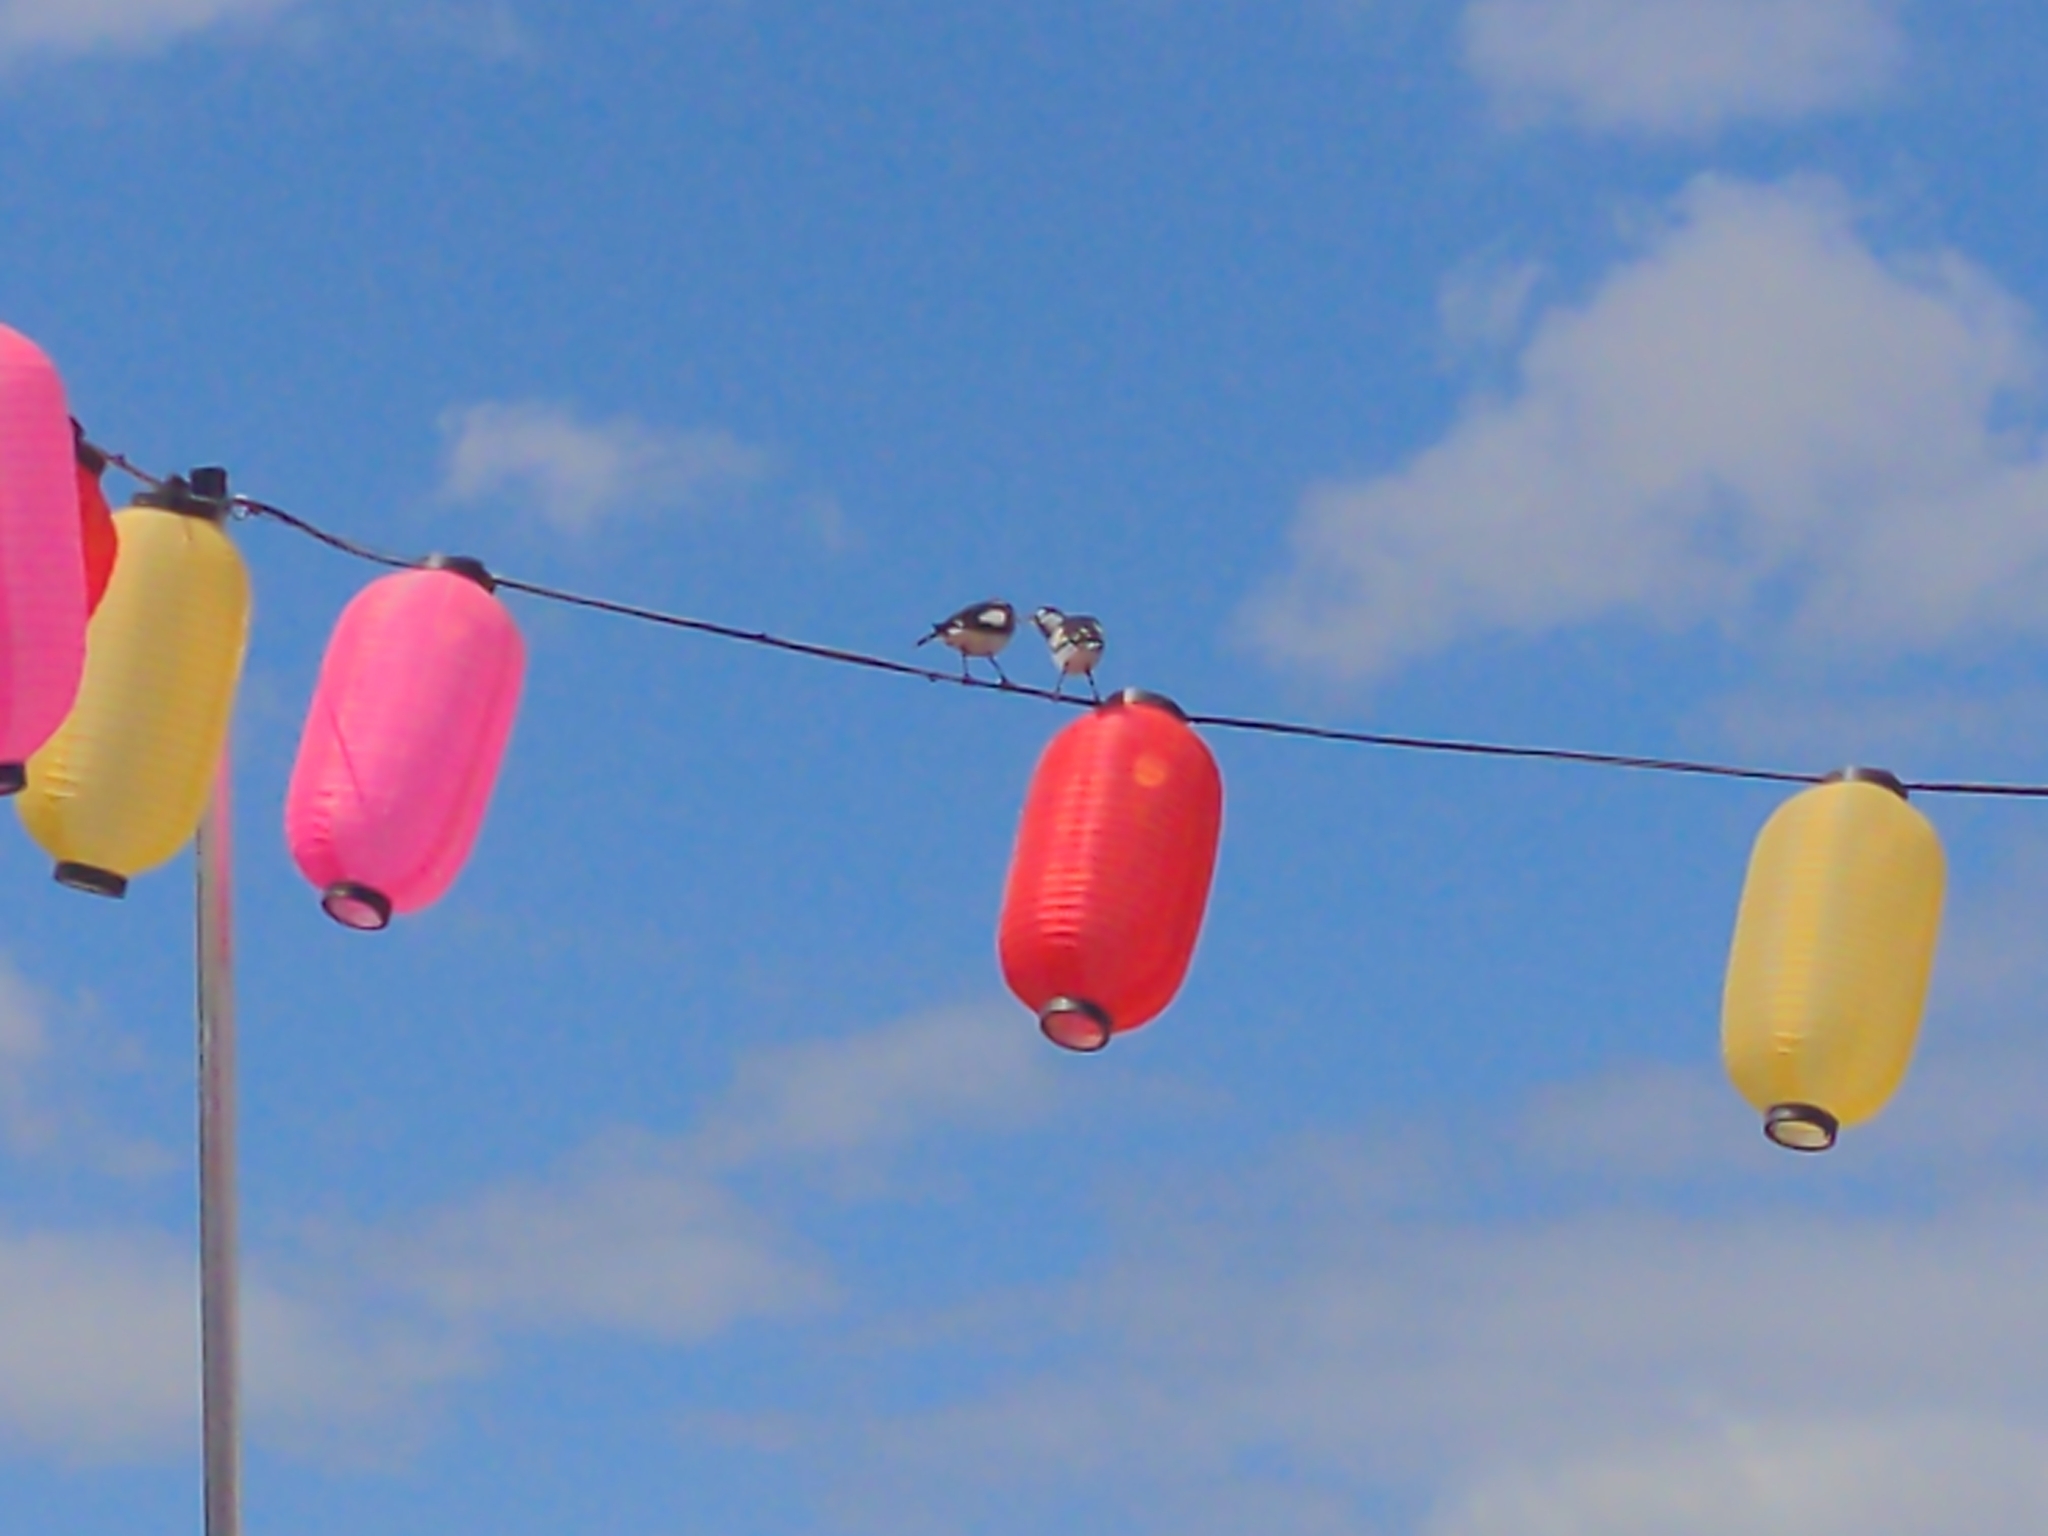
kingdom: Animalia
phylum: Chordata
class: Aves
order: Passeriformes
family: Monarchidae
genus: Grallina
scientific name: Grallina cyanoleuca
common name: Magpie-lark
